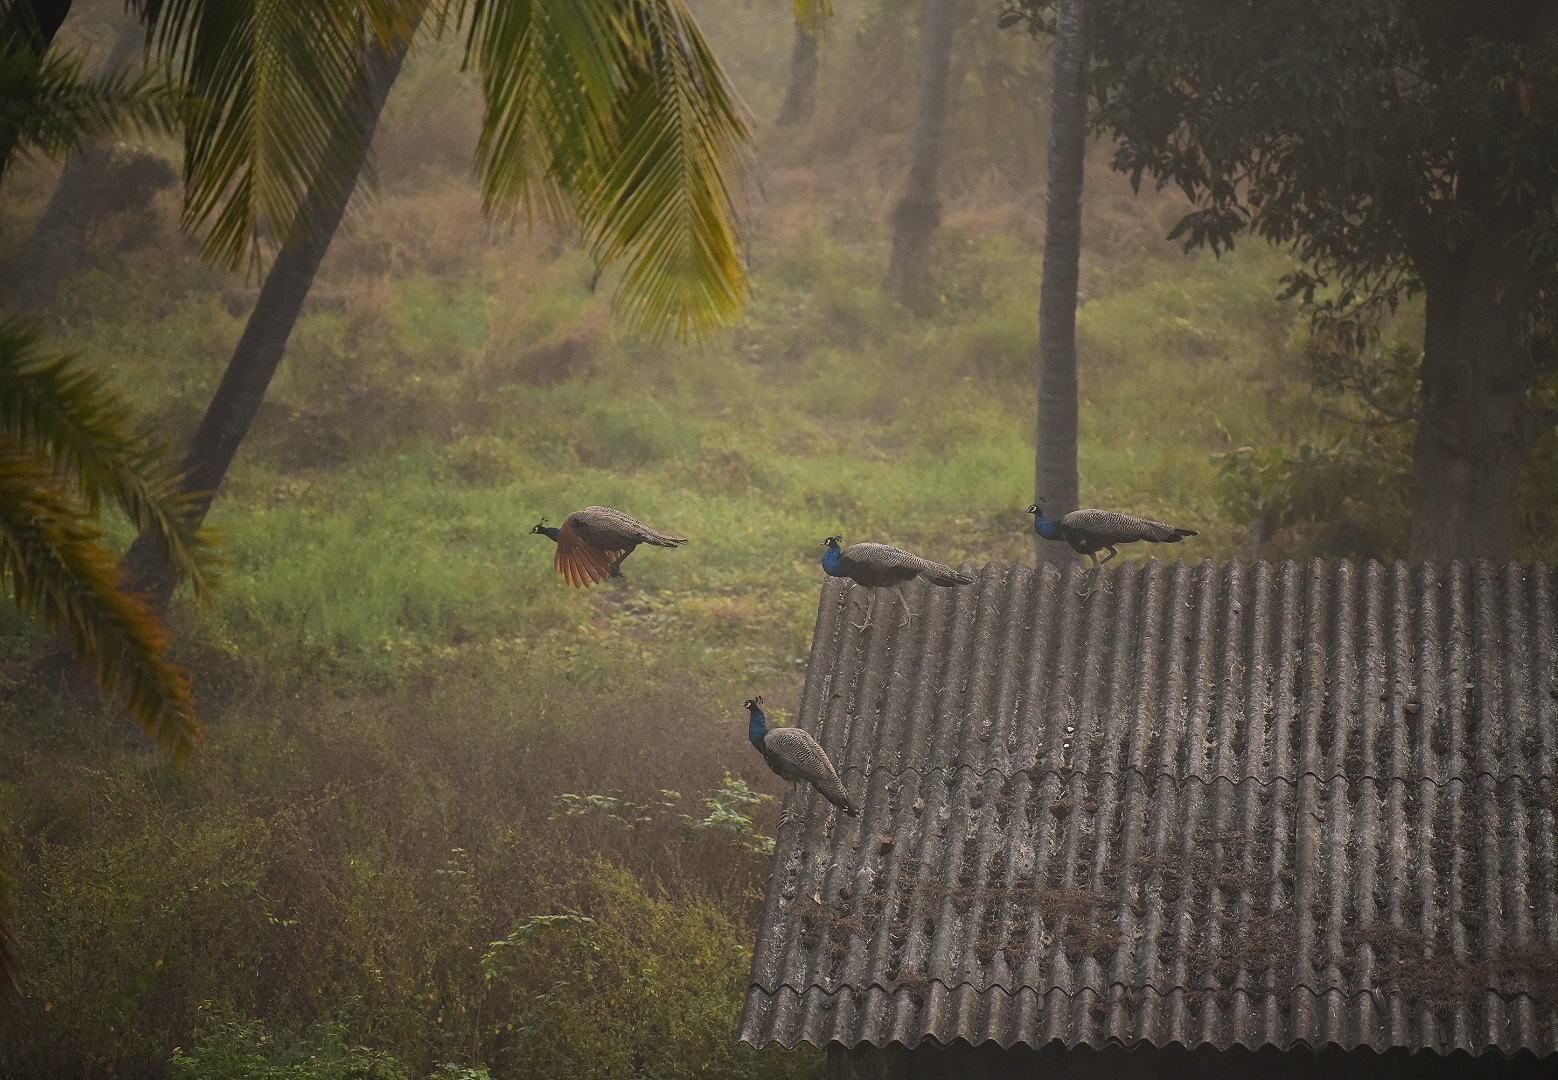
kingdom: Animalia
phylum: Chordata
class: Aves
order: Galliformes
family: Phasianidae
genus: Pavo
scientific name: Pavo cristatus
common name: Indian peafowl
